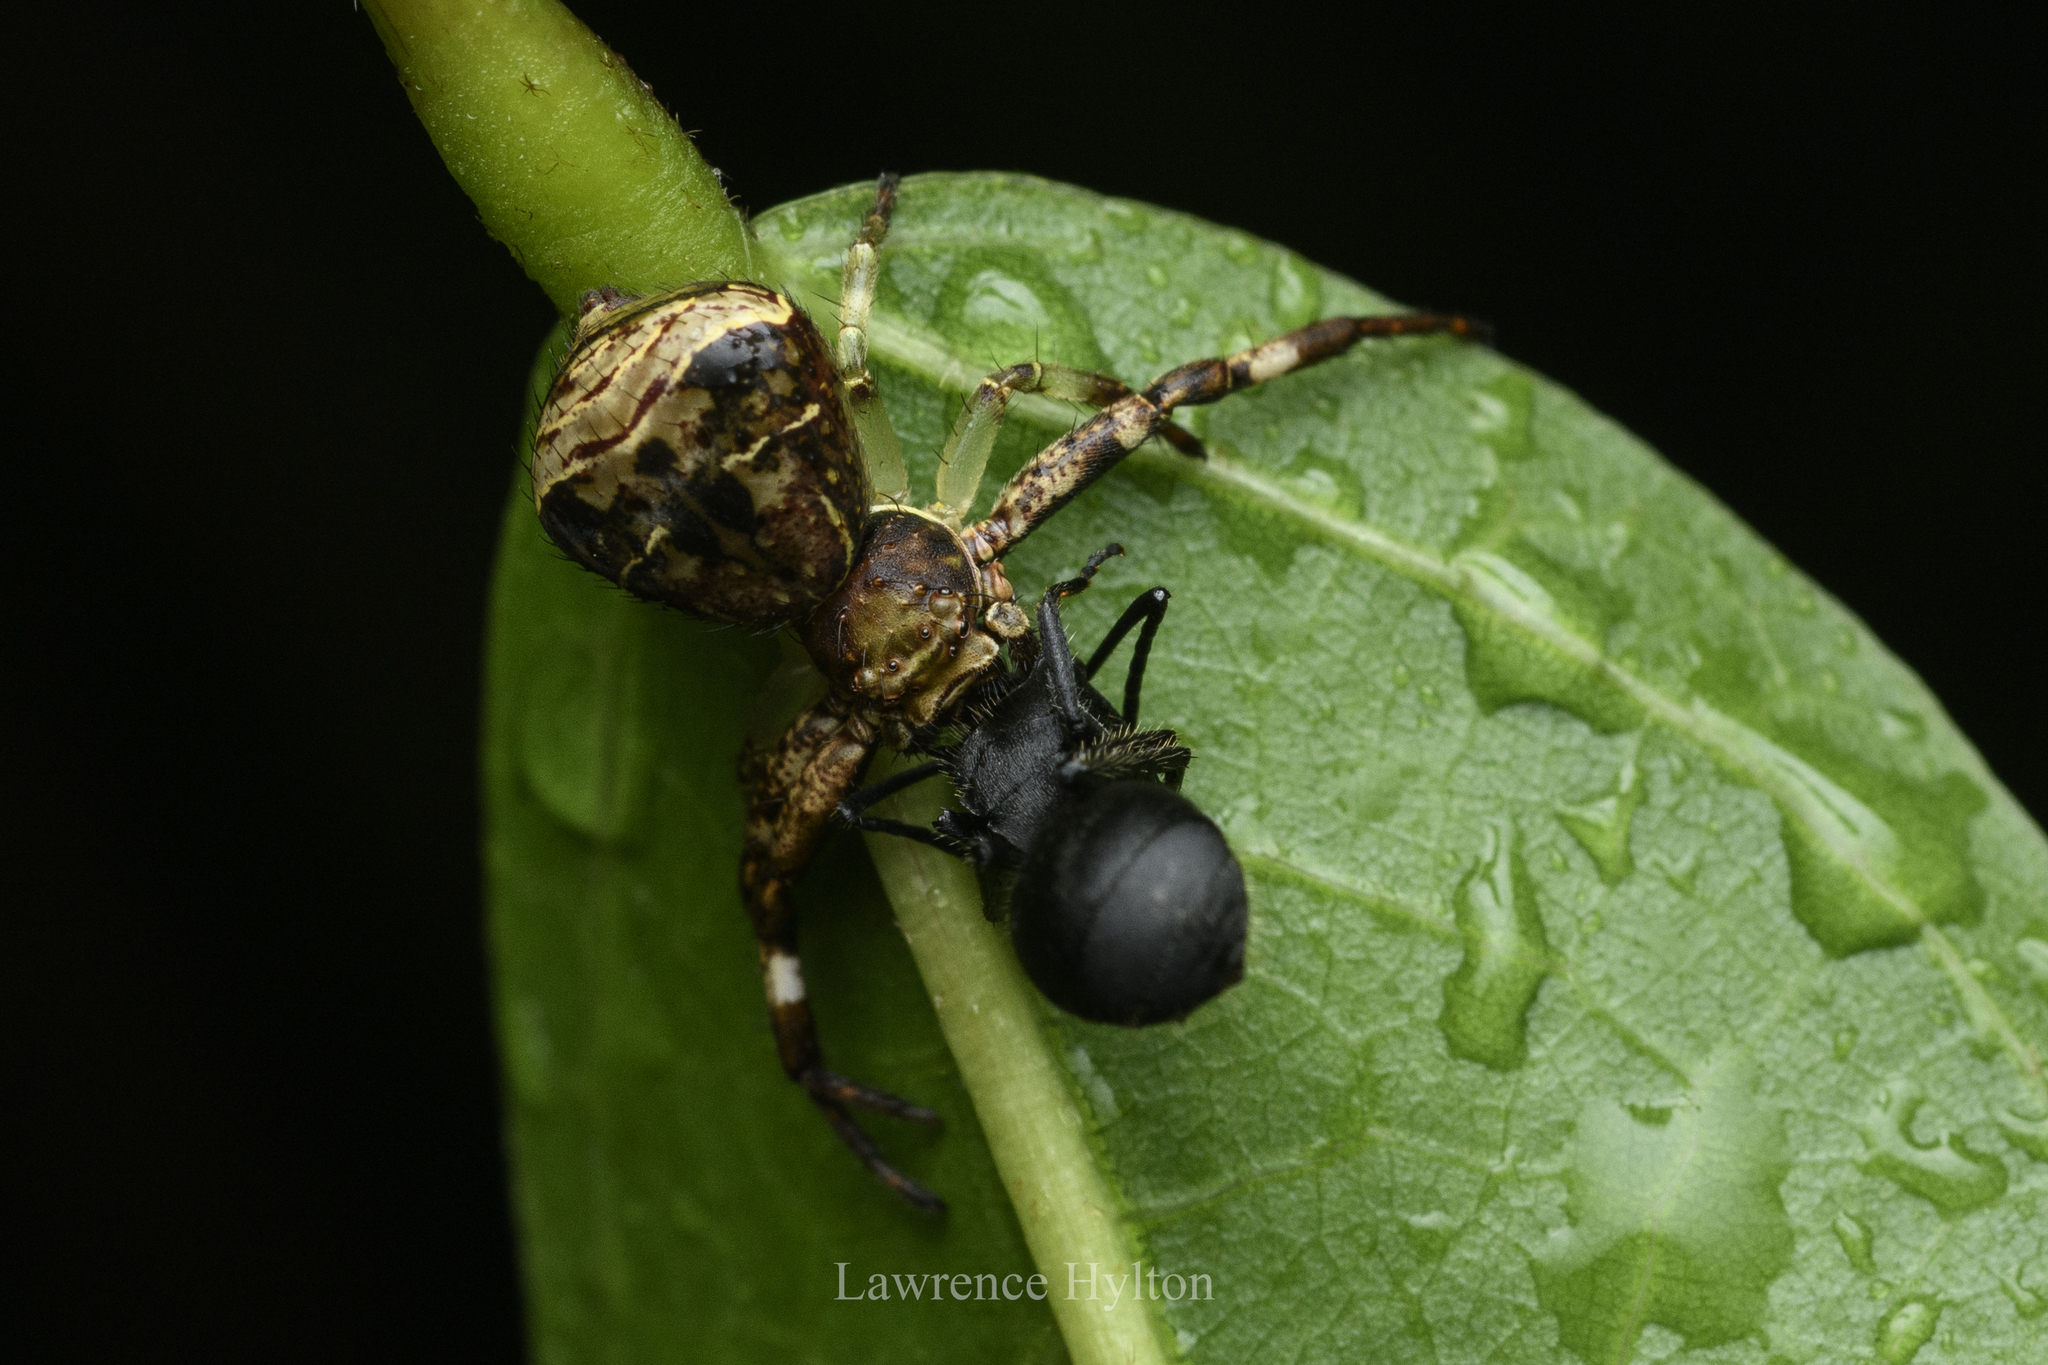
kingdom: Animalia
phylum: Arthropoda
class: Arachnida
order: Araneae
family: Thomisidae
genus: Strigoplus
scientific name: Strigoplus guizhouensis
